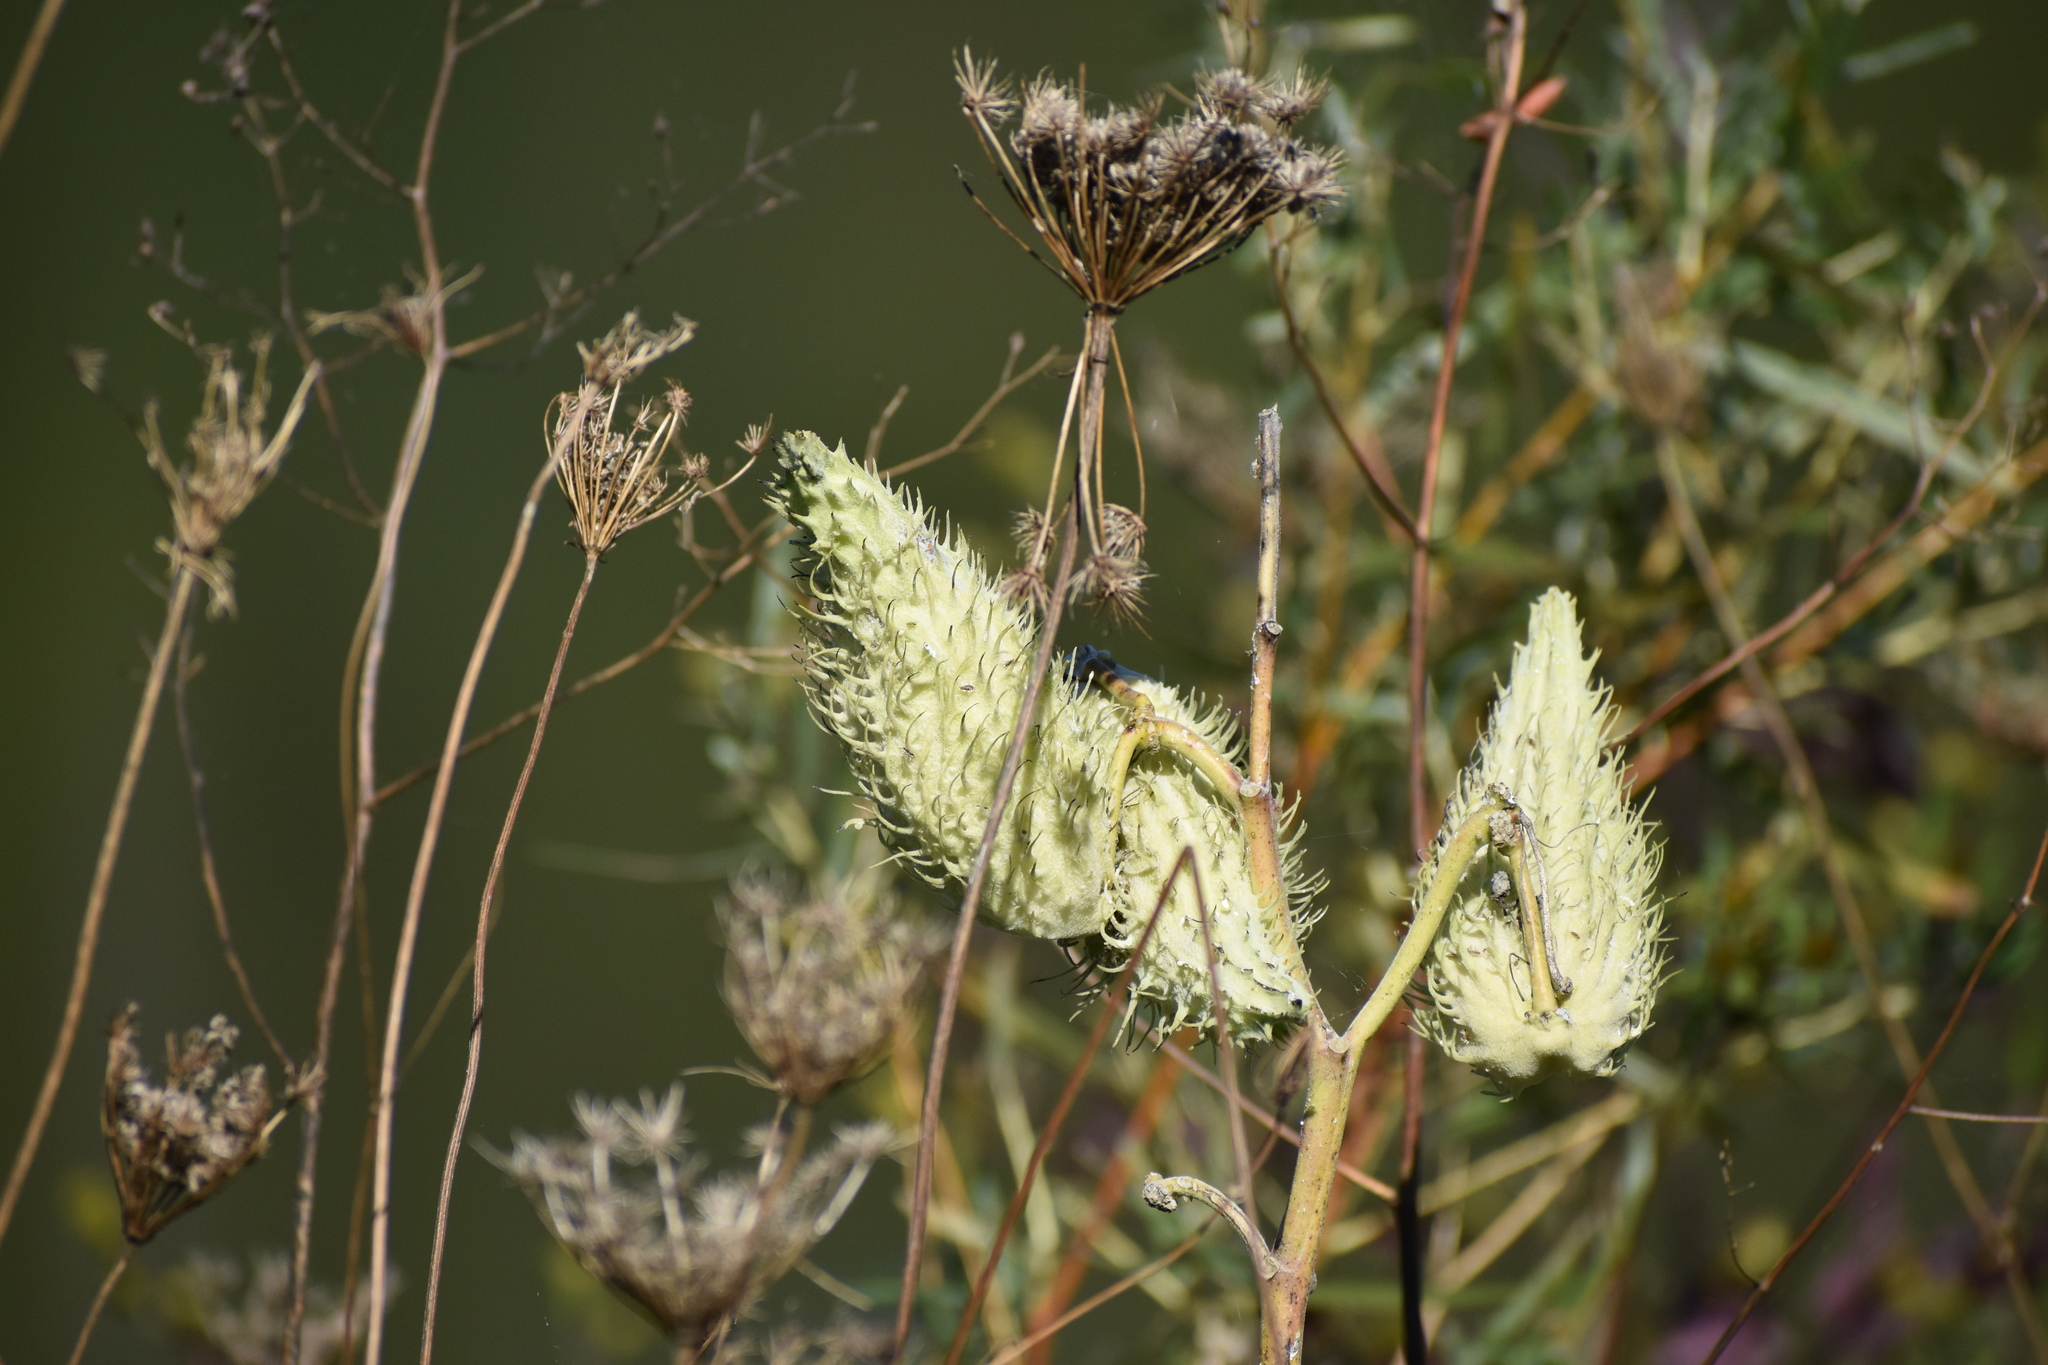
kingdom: Plantae
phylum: Tracheophyta
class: Magnoliopsida
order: Gentianales
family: Apocynaceae
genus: Asclepias
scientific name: Asclepias syriaca
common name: Common milkweed
